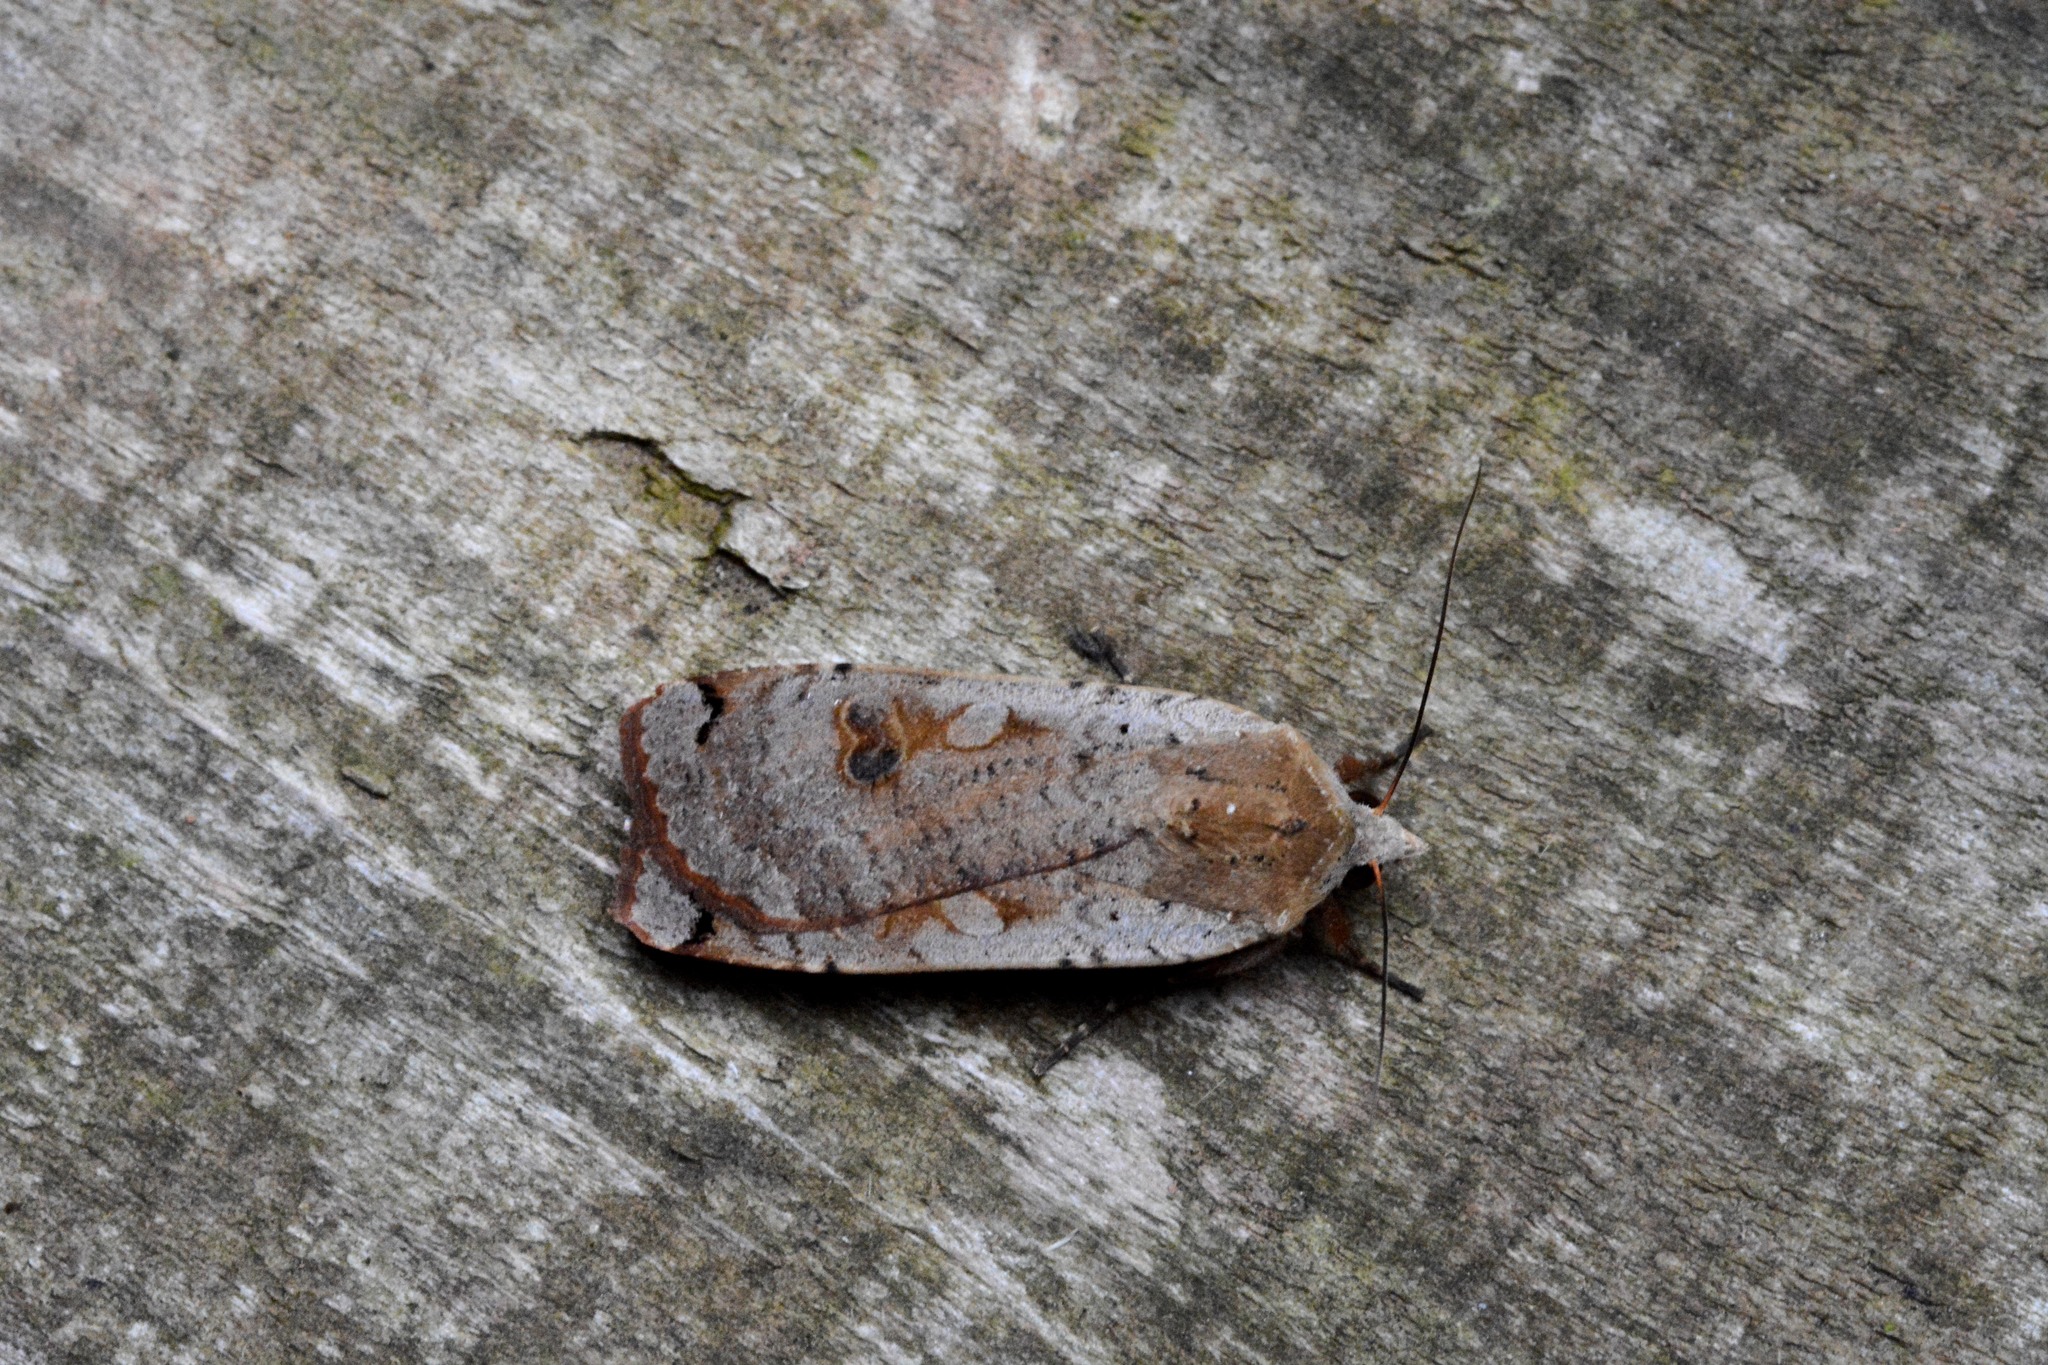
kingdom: Animalia
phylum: Arthropoda
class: Insecta
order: Lepidoptera
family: Noctuidae
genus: Noctua
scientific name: Noctua pronuba
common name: Large yellow underwing
